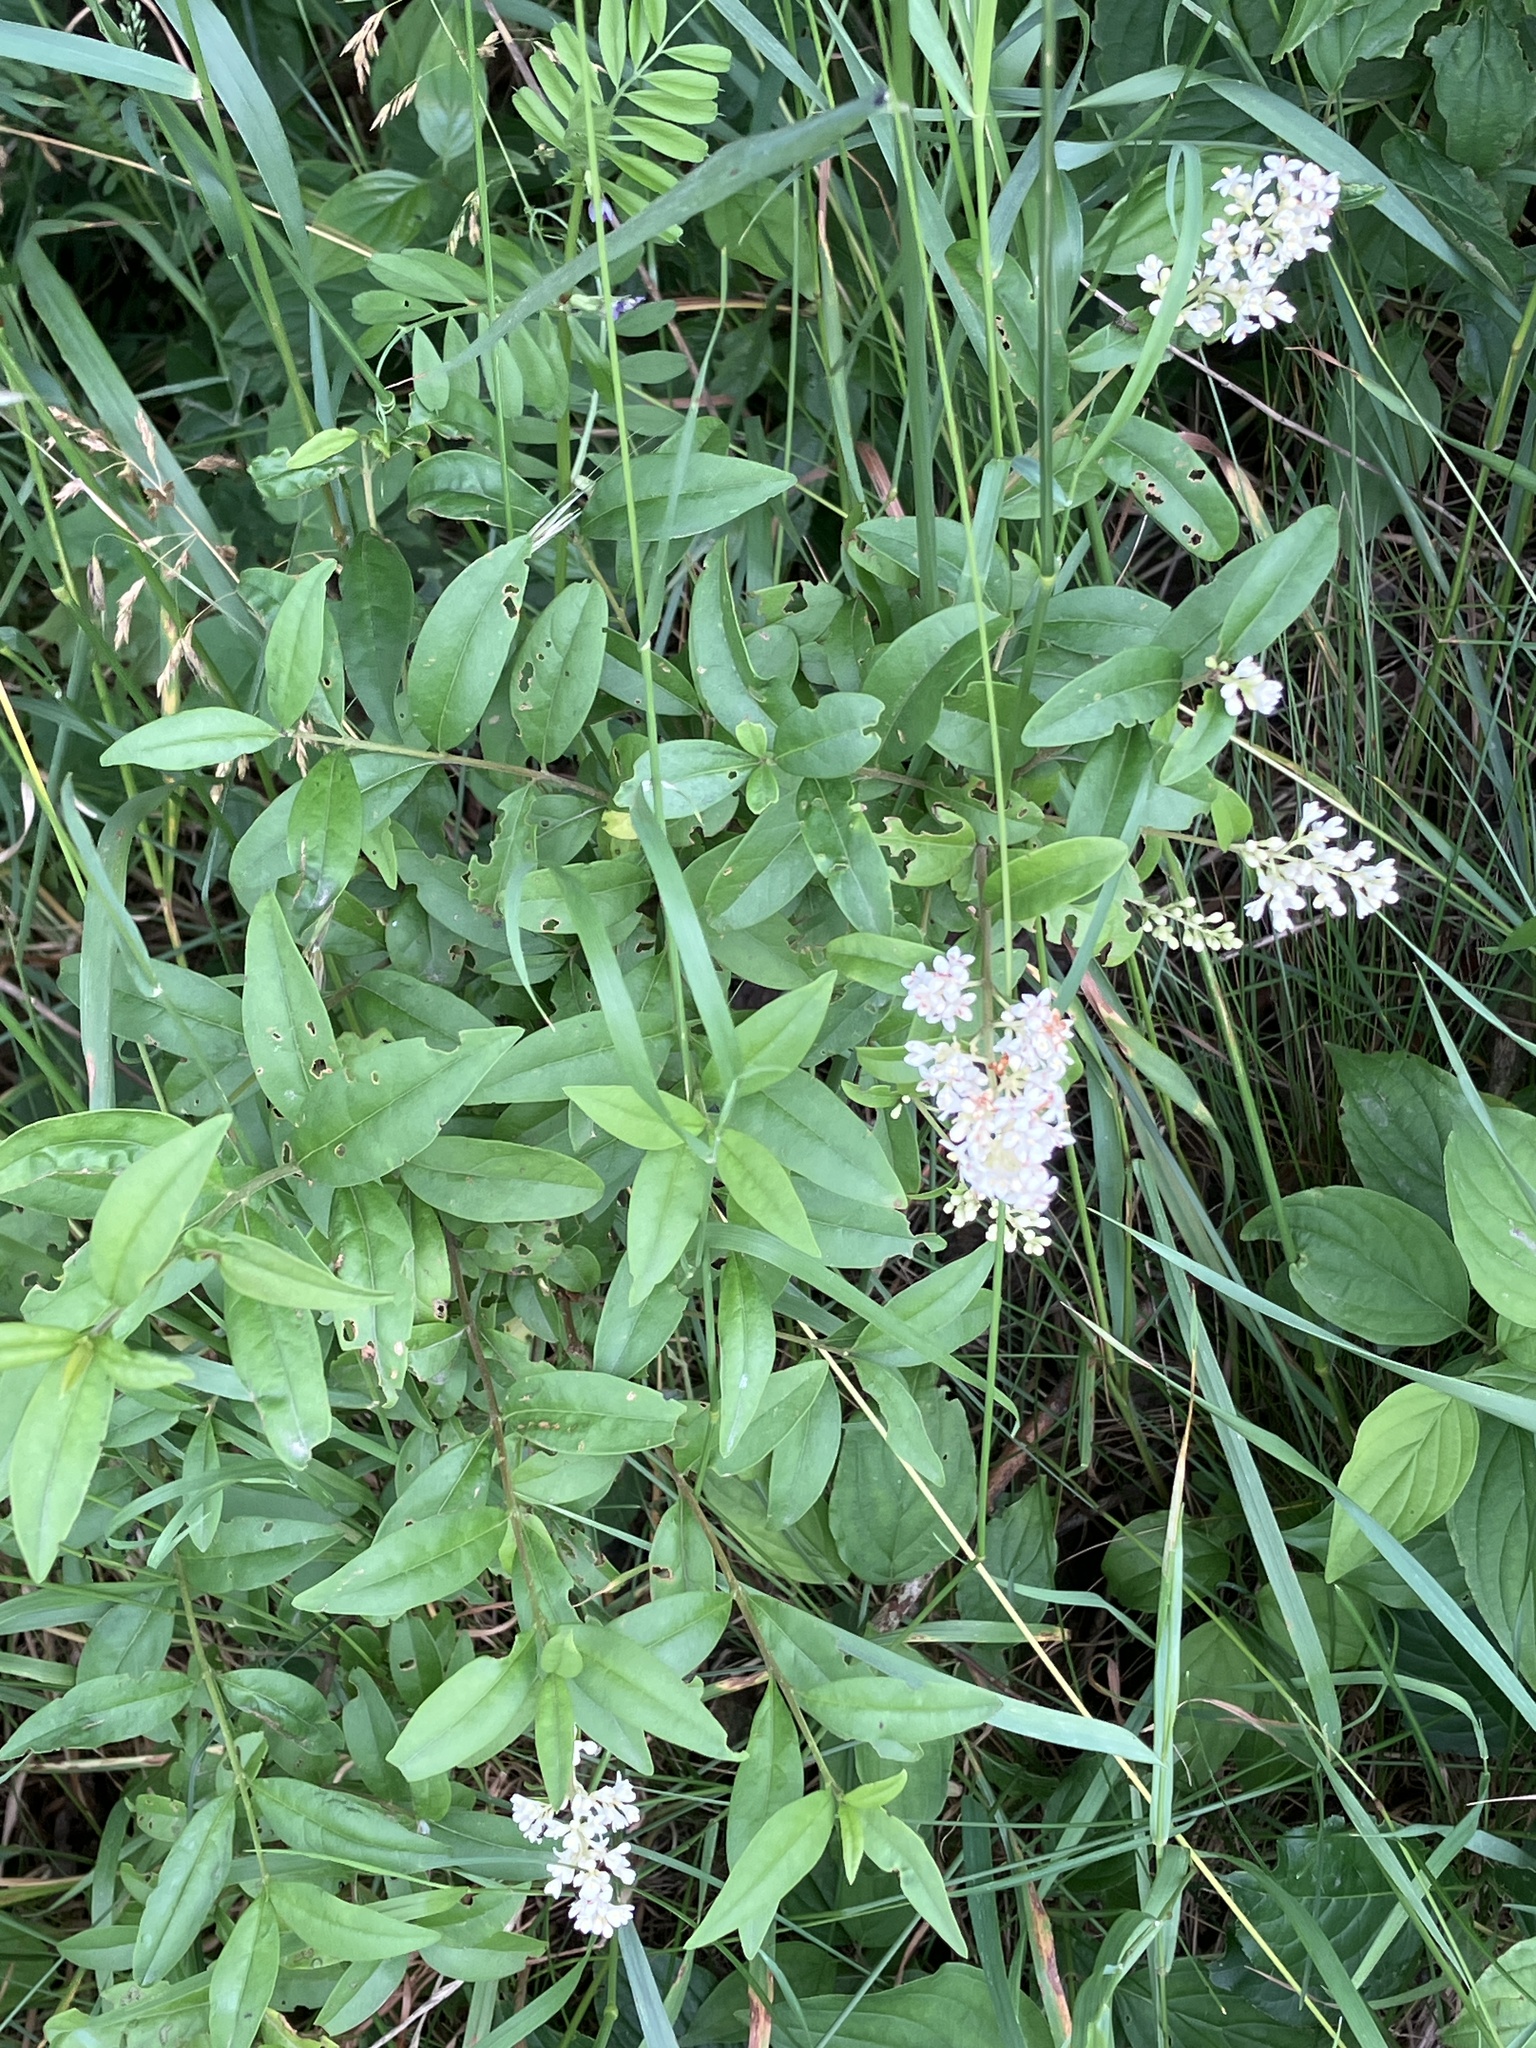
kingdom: Plantae
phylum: Tracheophyta
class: Magnoliopsida
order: Lamiales
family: Oleaceae
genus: Ligustrum
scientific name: Ligustrum vulgare
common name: Wild privet
